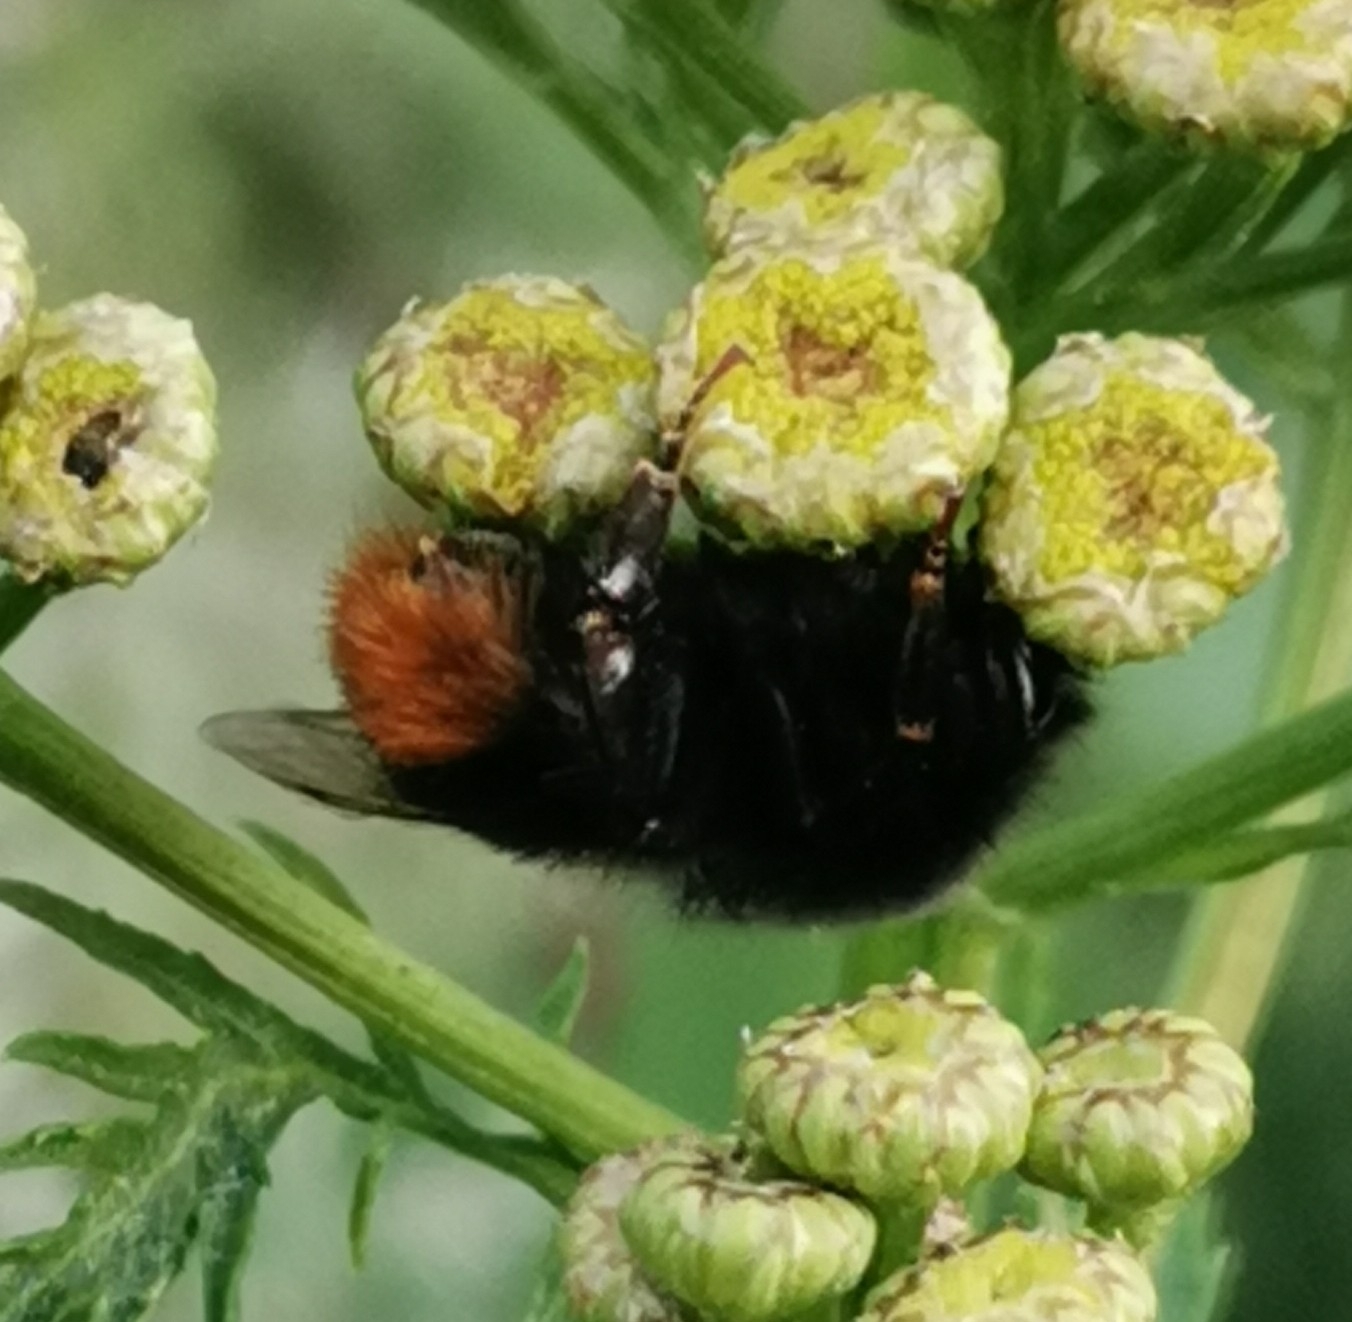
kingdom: Animalia
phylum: Arthropoda
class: Insecta
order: Hymenoptera
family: Apidae
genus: Bombus
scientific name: Bombus lapidarius
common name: Large red-tailed humble-bee
